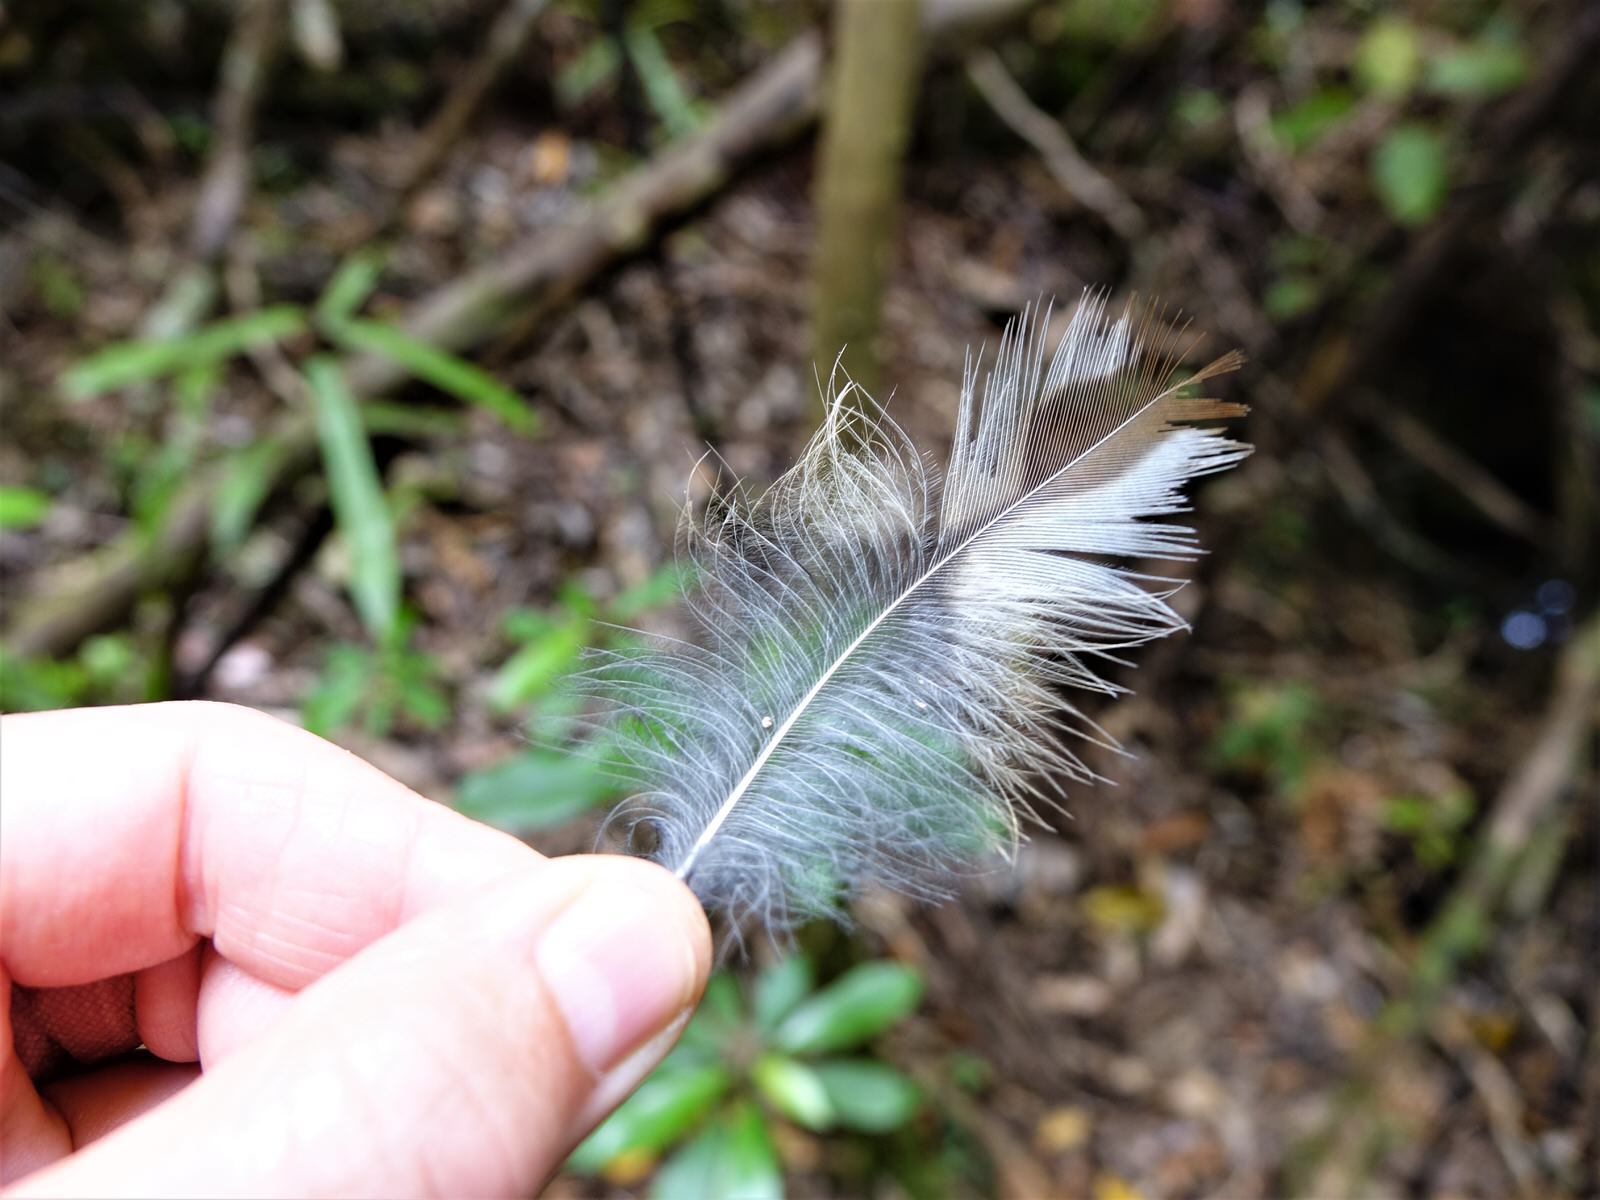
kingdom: Animalia
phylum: Chordata
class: Aves
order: Strigiformes
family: Strigidae
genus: Ninox
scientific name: Ninox novaeseelandiae
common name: Morepork
